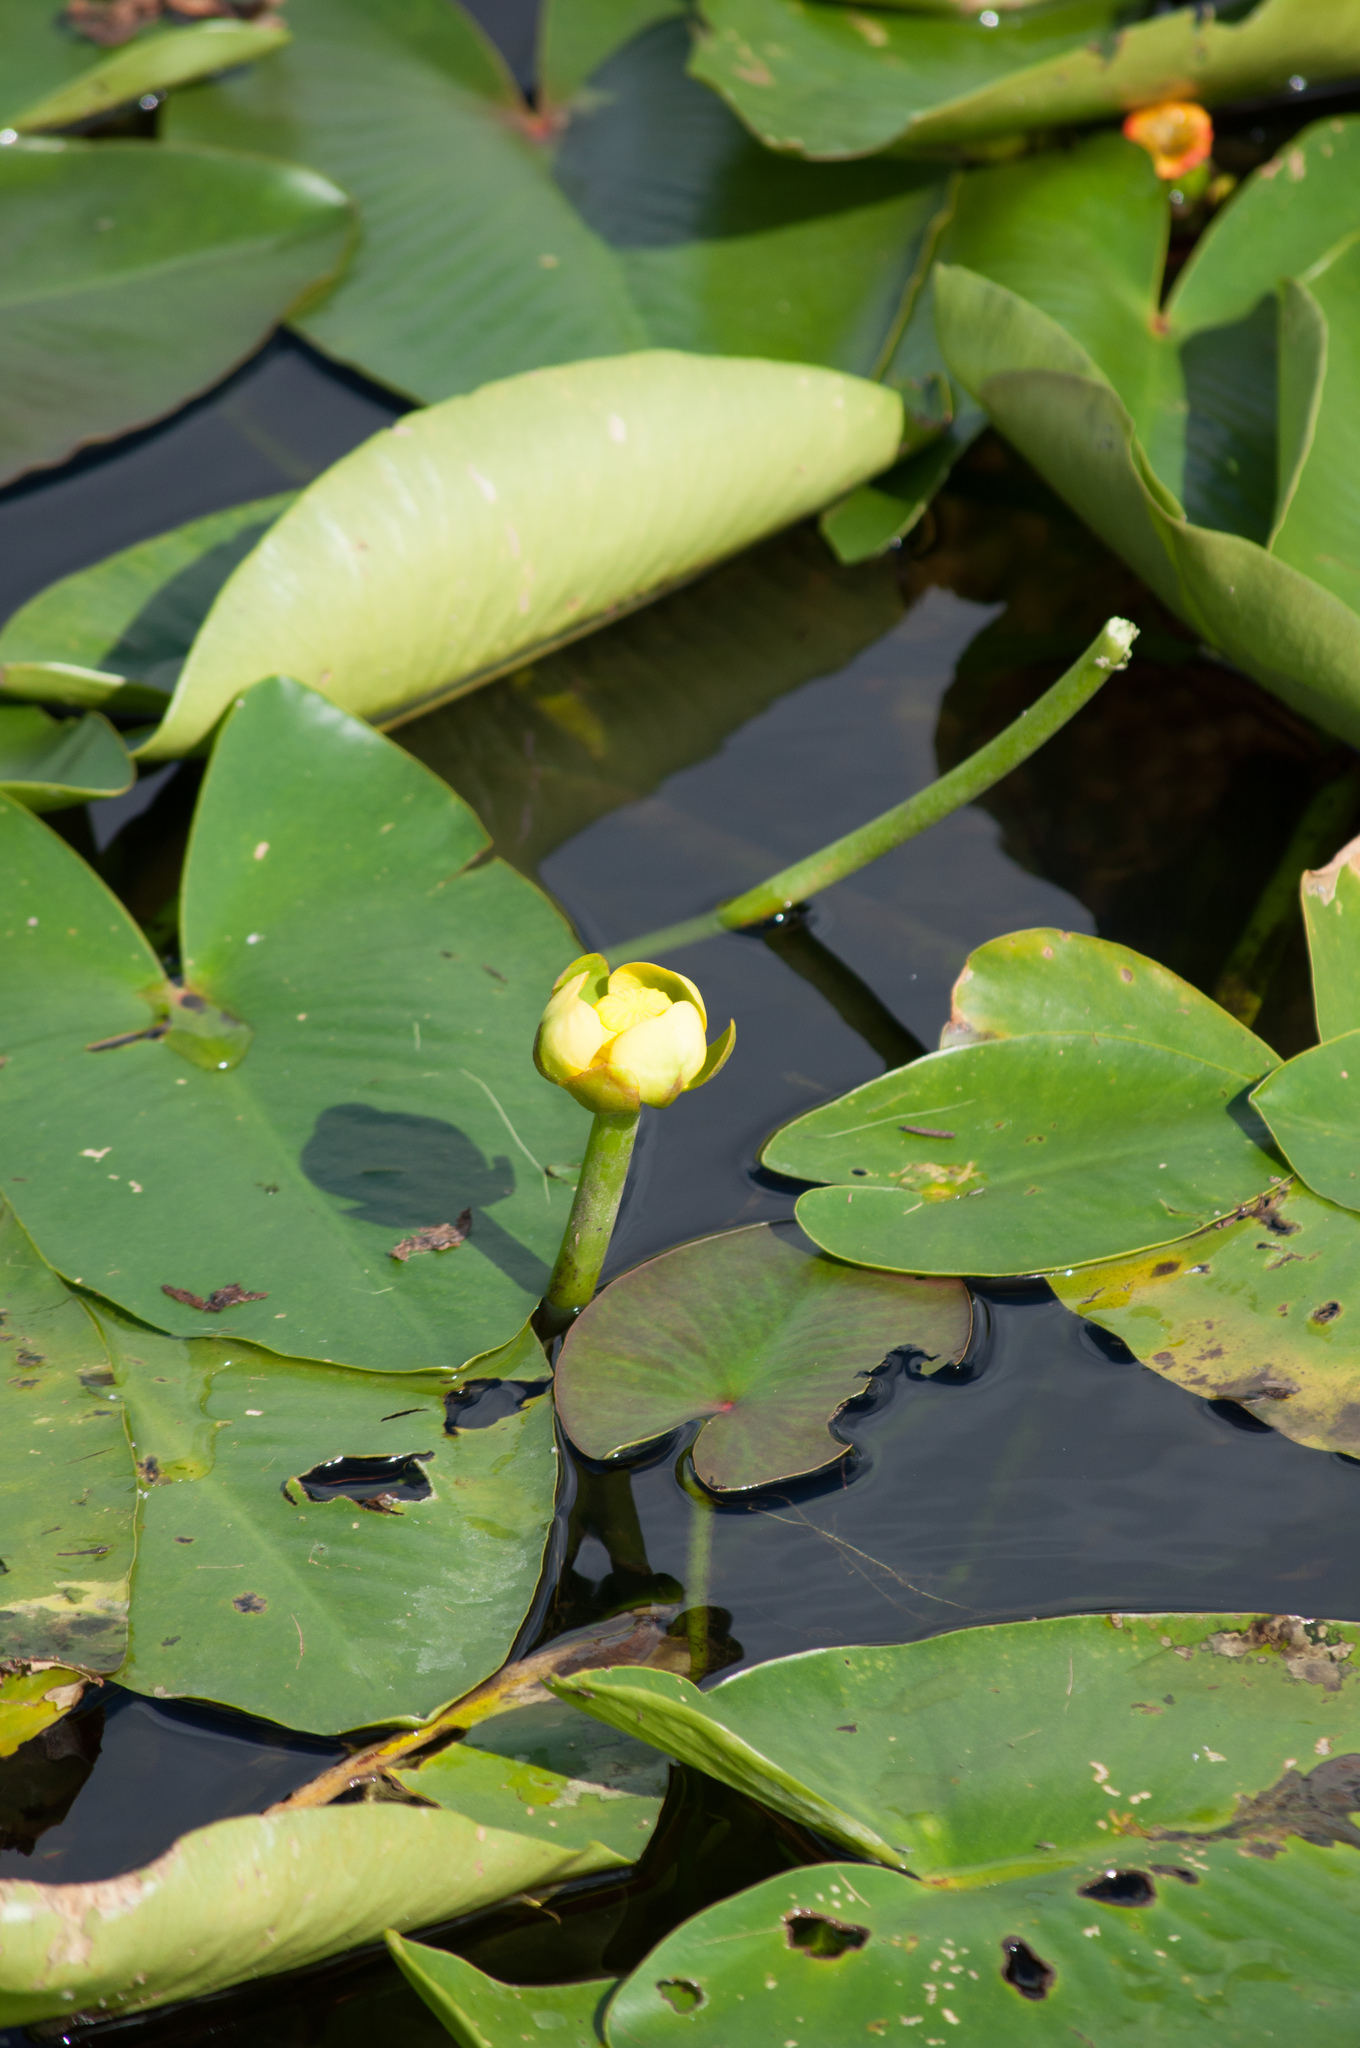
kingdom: Plantae
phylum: Tracheophyta
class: Magnoliopsida
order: Nymphaeales
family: Nymphaeaceae
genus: Nuphar
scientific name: Nuphar advena
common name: Spatter-dock
